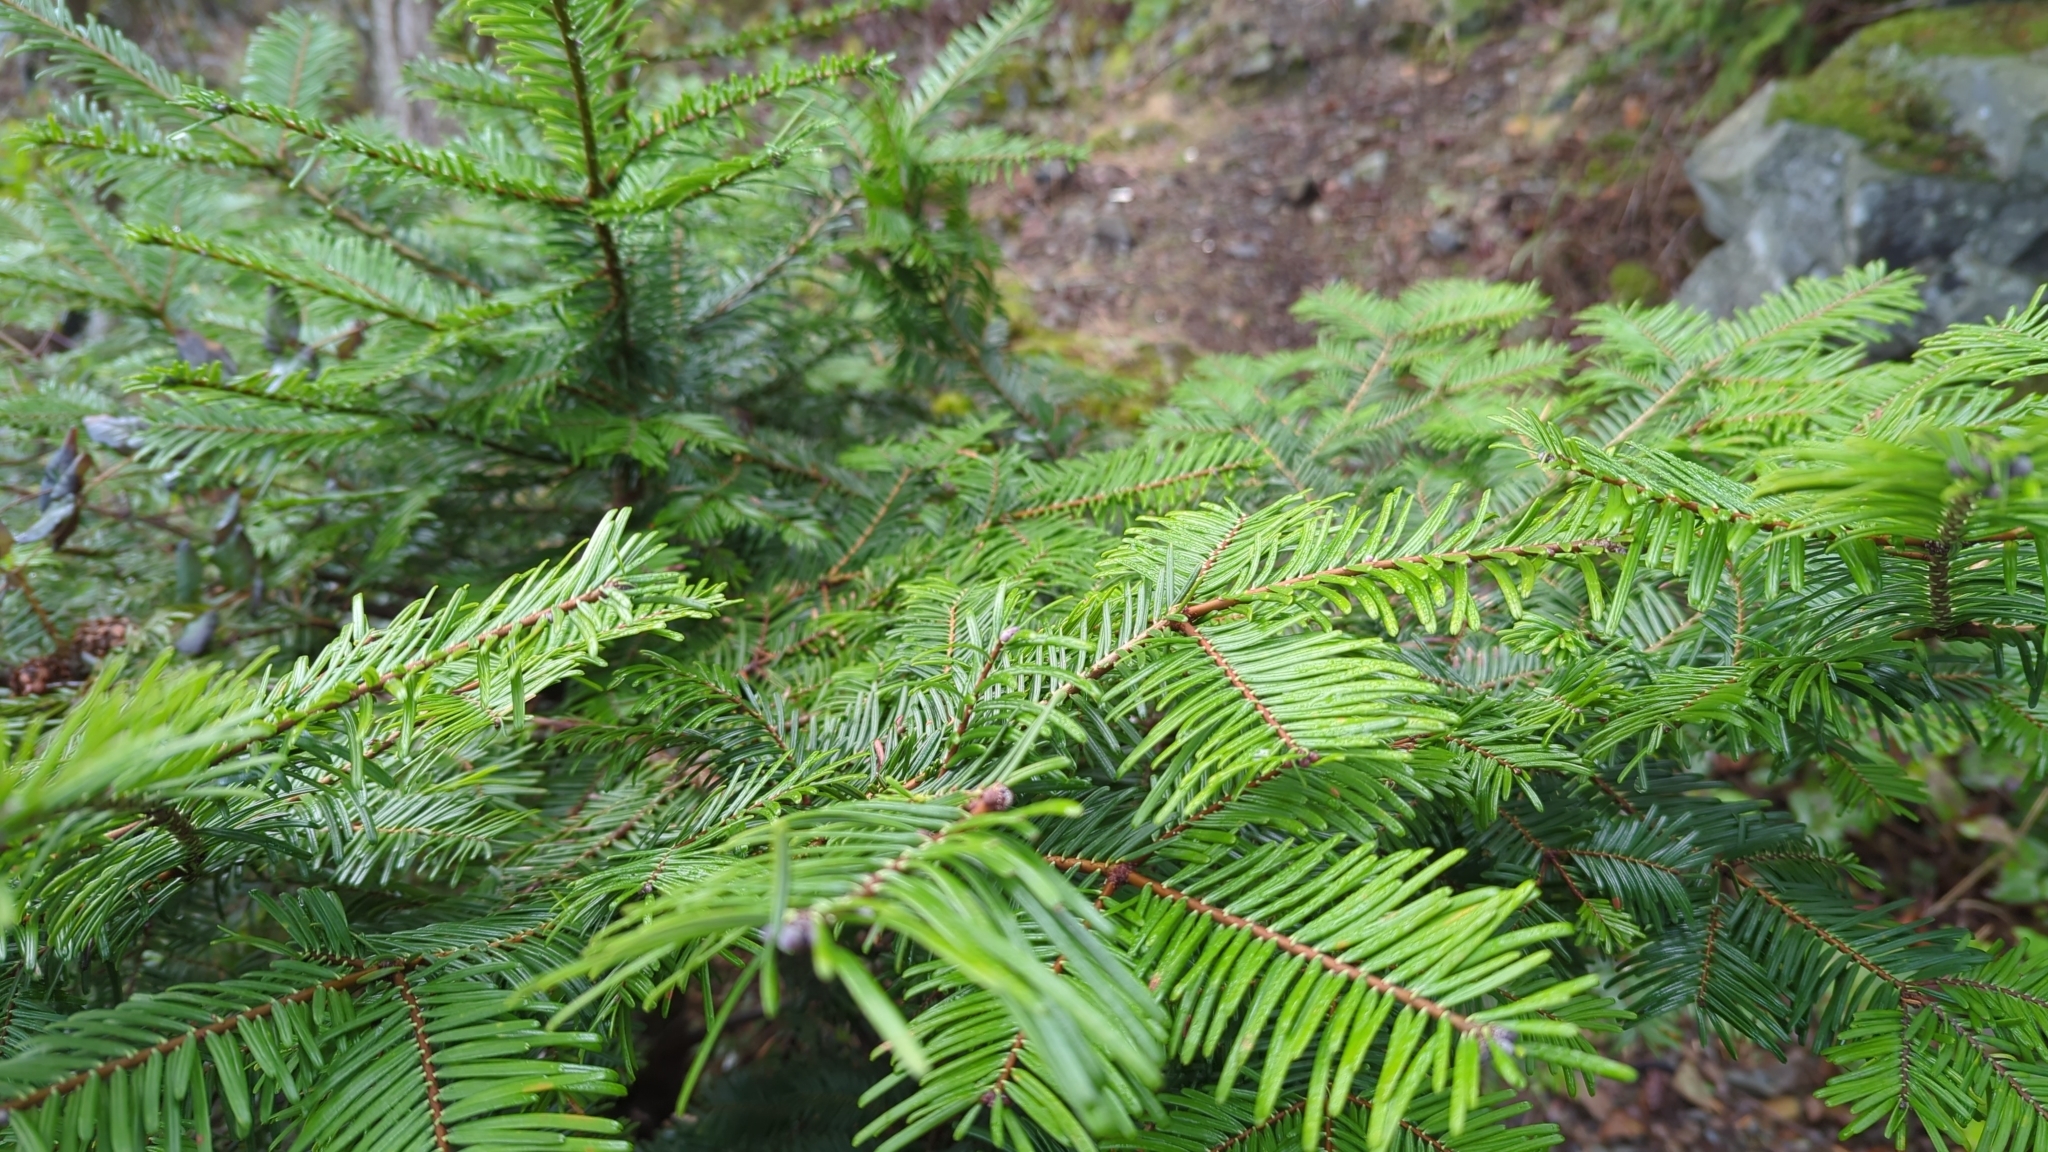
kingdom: Plantae
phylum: Tracheophyta
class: Pinopsida
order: Pinales
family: Pinaceae
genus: Abies
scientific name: Abies grandis
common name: Giant fir
